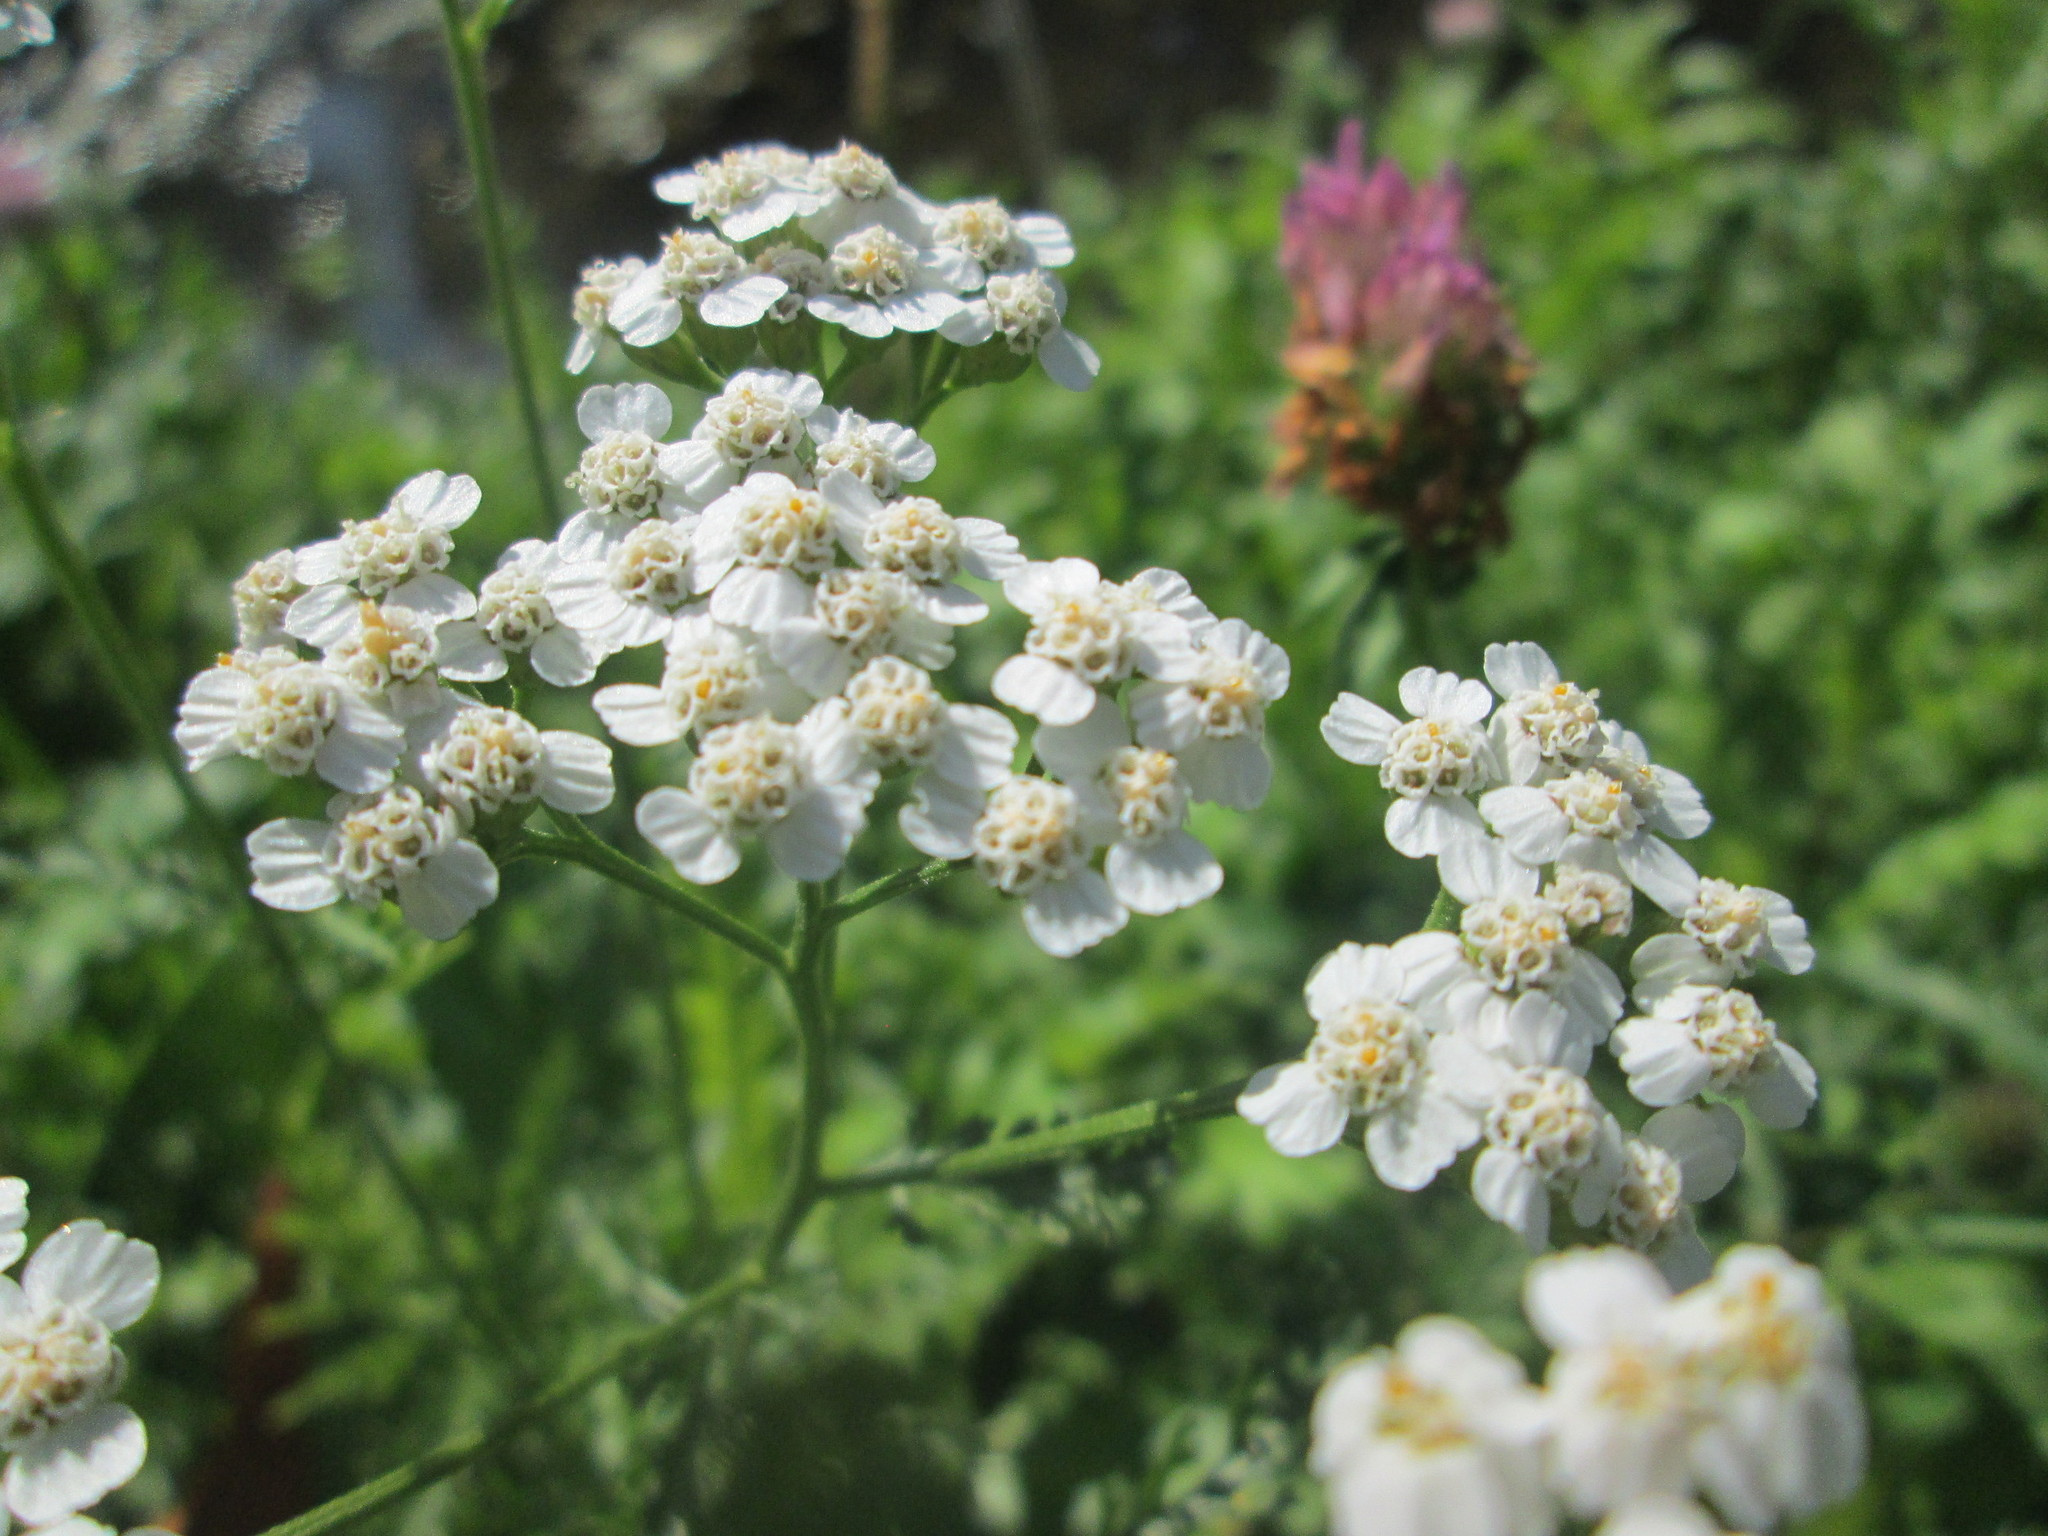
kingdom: Plantae
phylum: Tracheophyta
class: Magnoliopsida
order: Asterales
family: Asteraceae
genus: Achillea
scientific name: Achillea millefolium
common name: Yarrow
